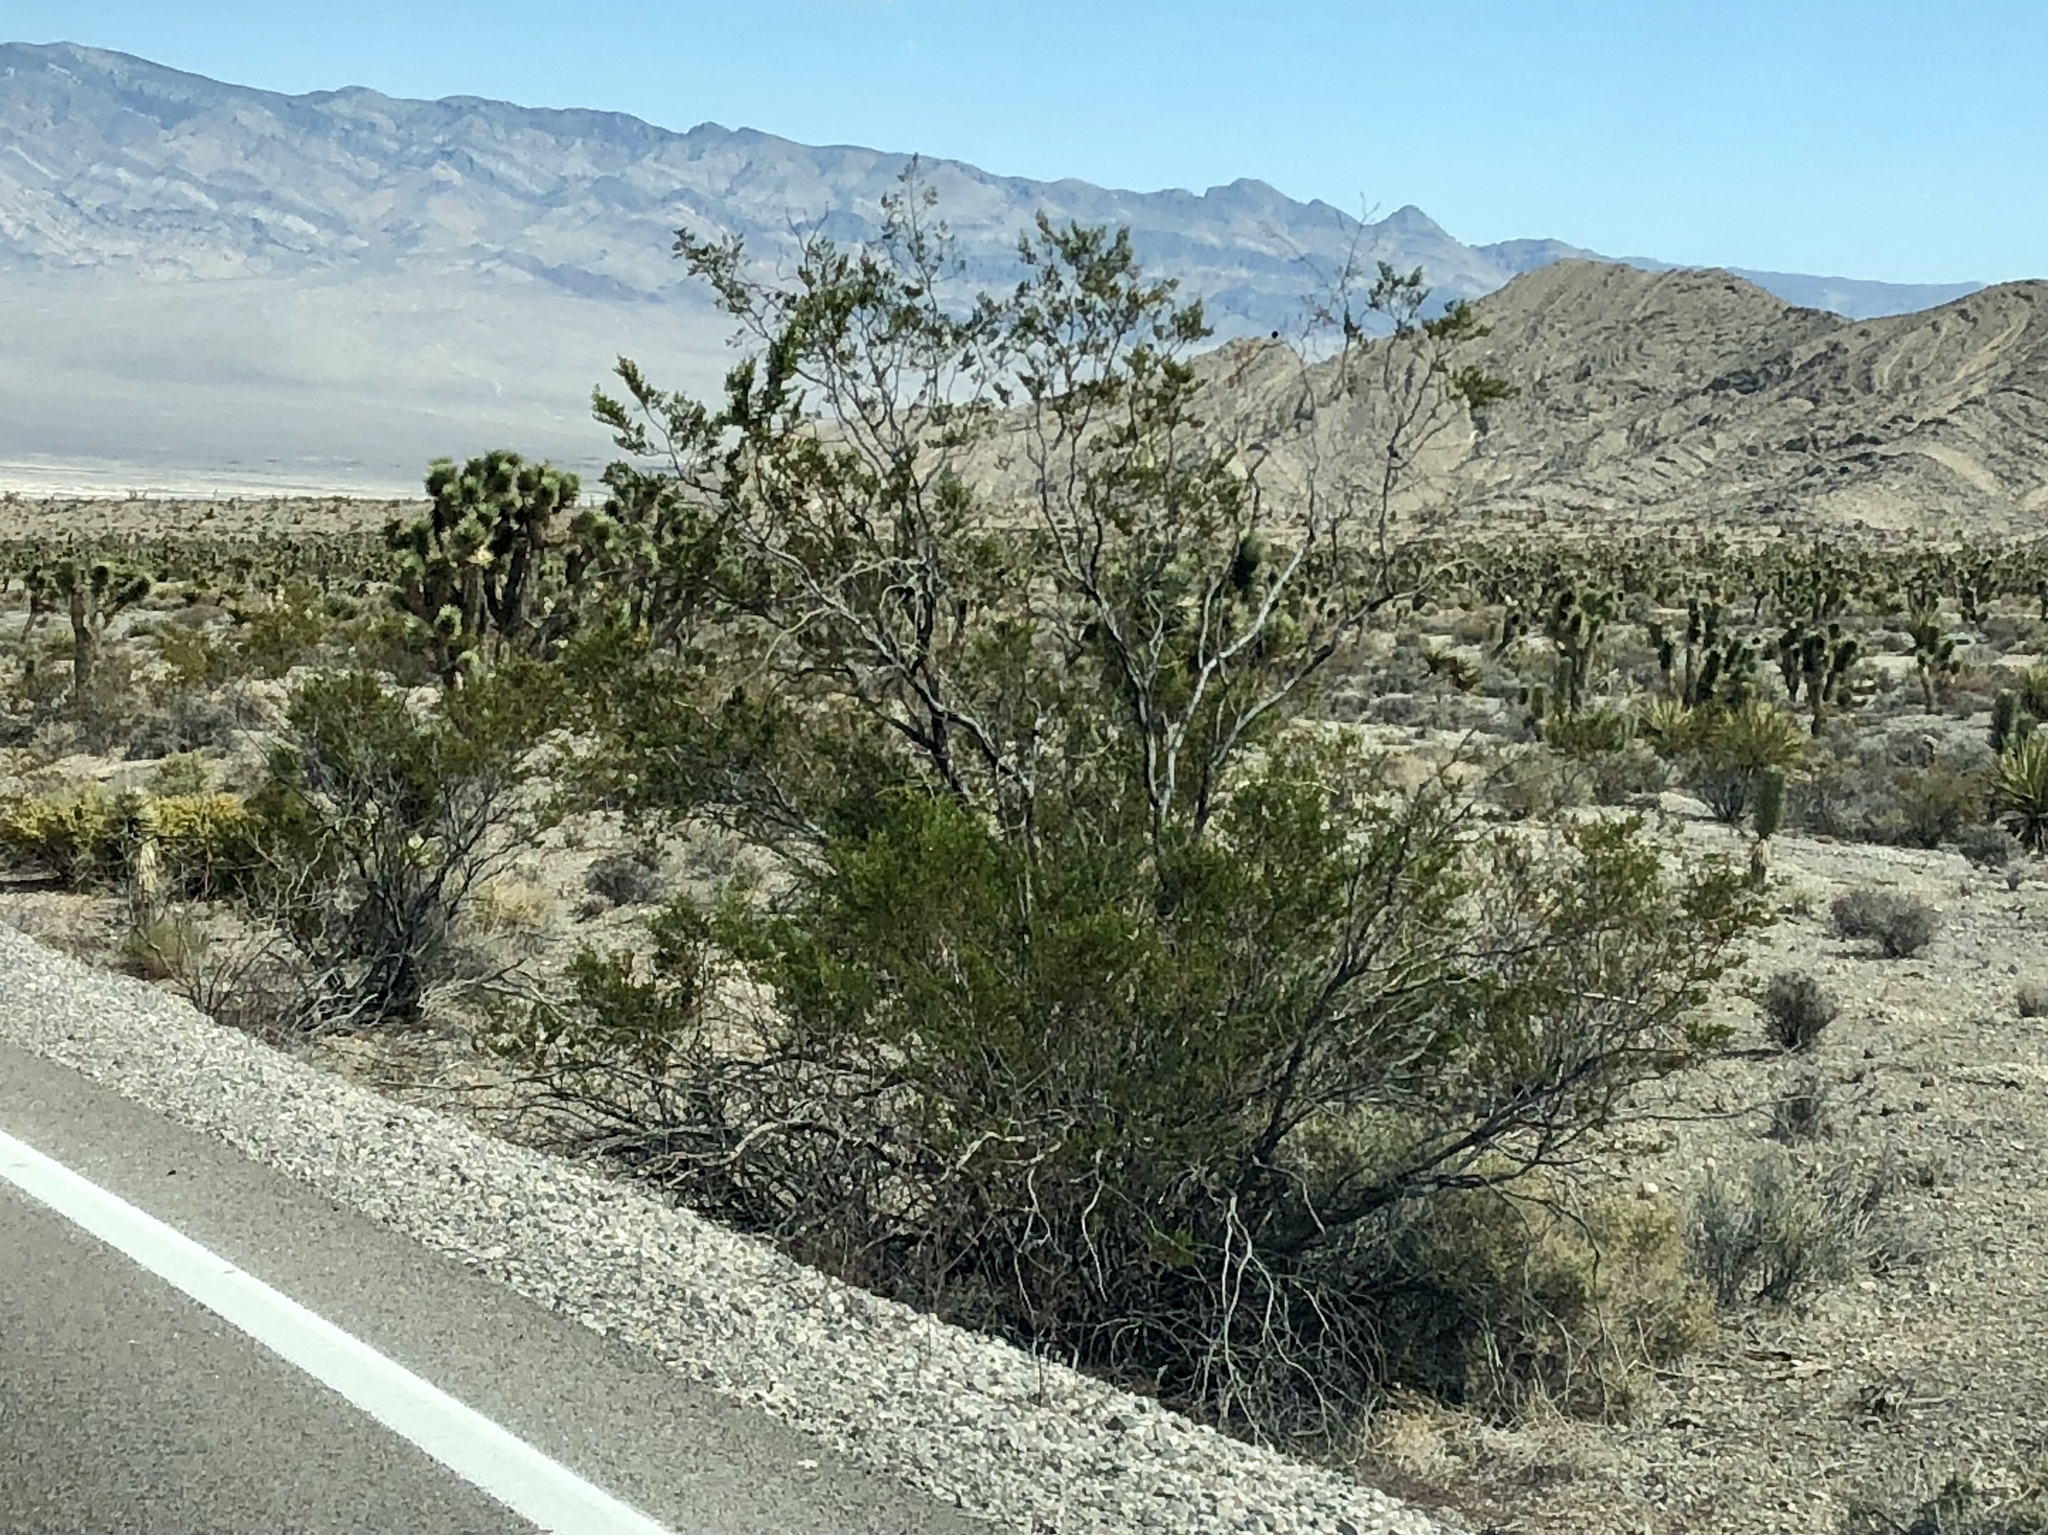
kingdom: Plantae
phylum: Tracheophyta
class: Magnoliopsida
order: Zygophyllales
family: Zygophyllaceae
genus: Larrea
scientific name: Larrea tridentata
